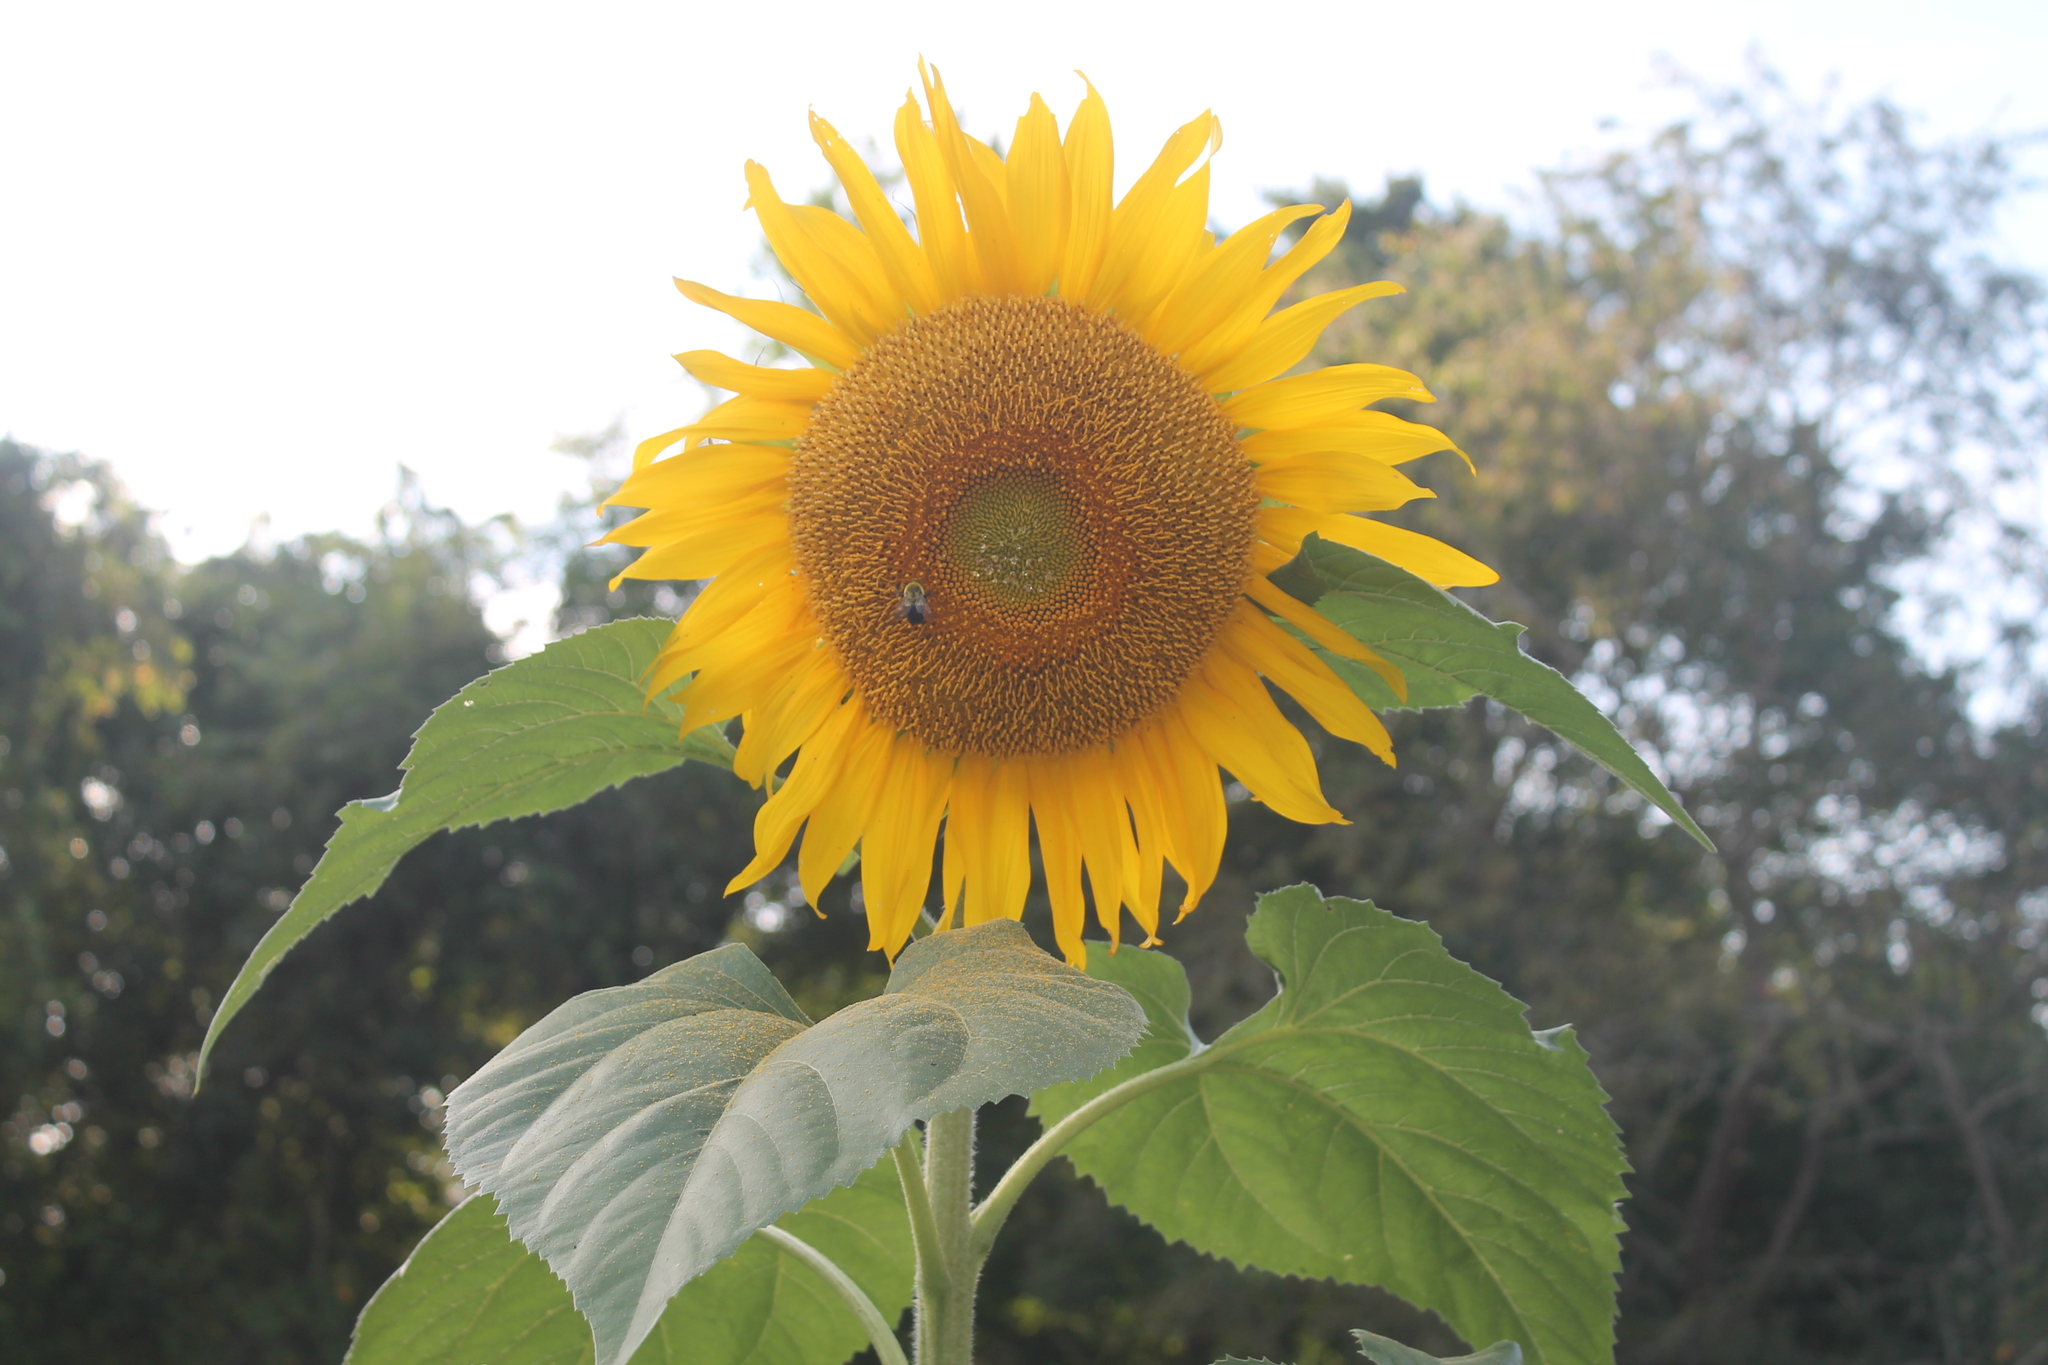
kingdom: Animalia
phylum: Arthropoda
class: Insecta
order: Hymenoptera
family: Apidae
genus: Bombus
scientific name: Bombus impatiens
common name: Common eastern bumble bee
